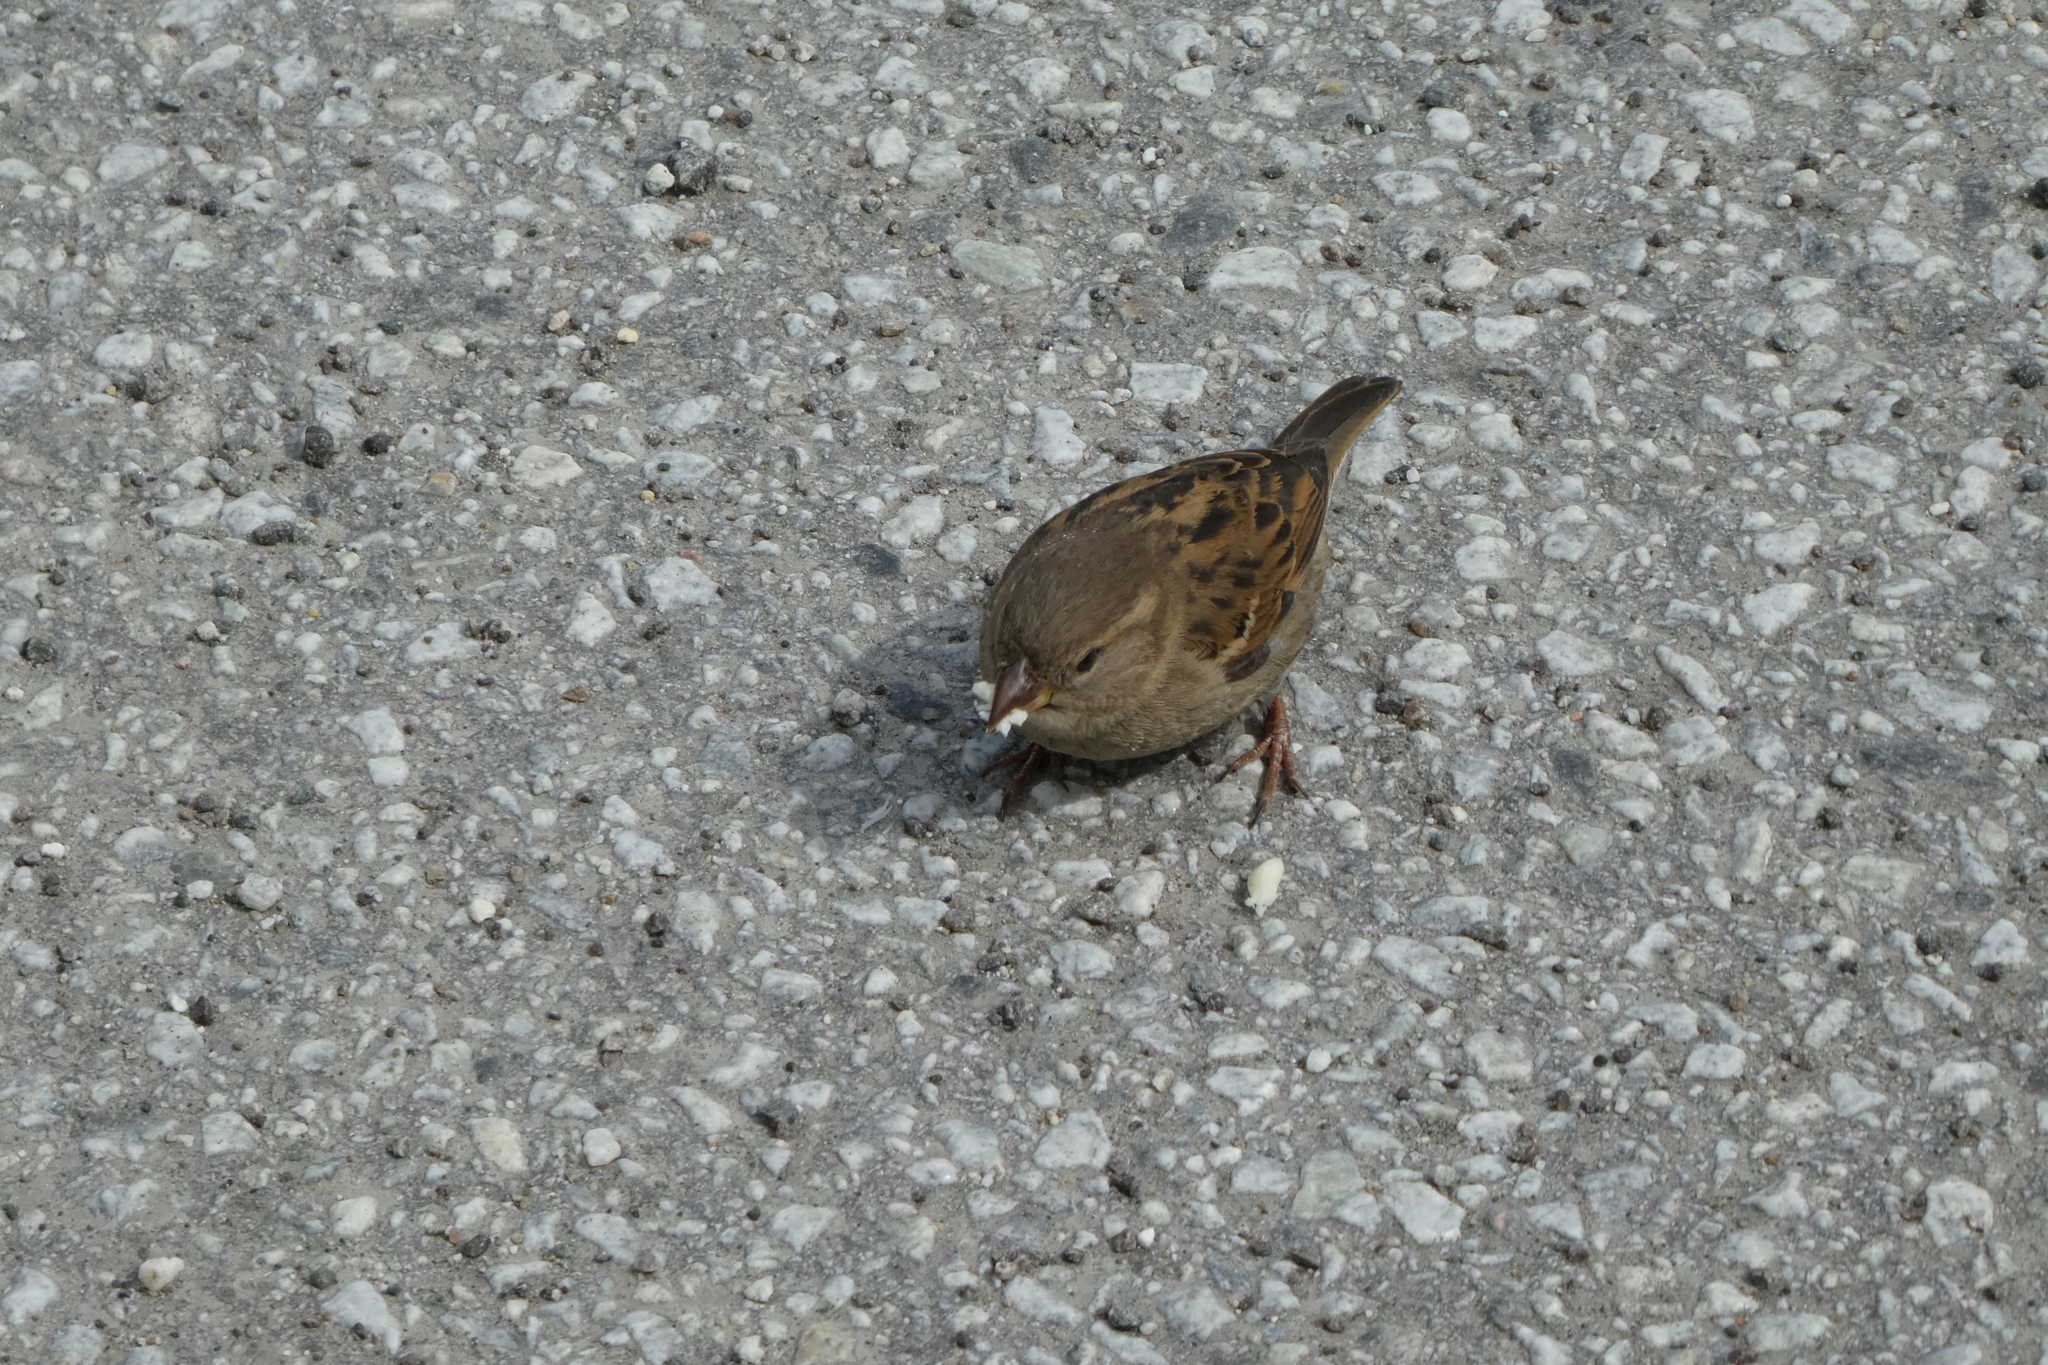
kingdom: Animalia
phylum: Chordata
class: Aves
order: Passeriformes
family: Passeridae
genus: Passer
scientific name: Passer domesticus
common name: House sparrow
